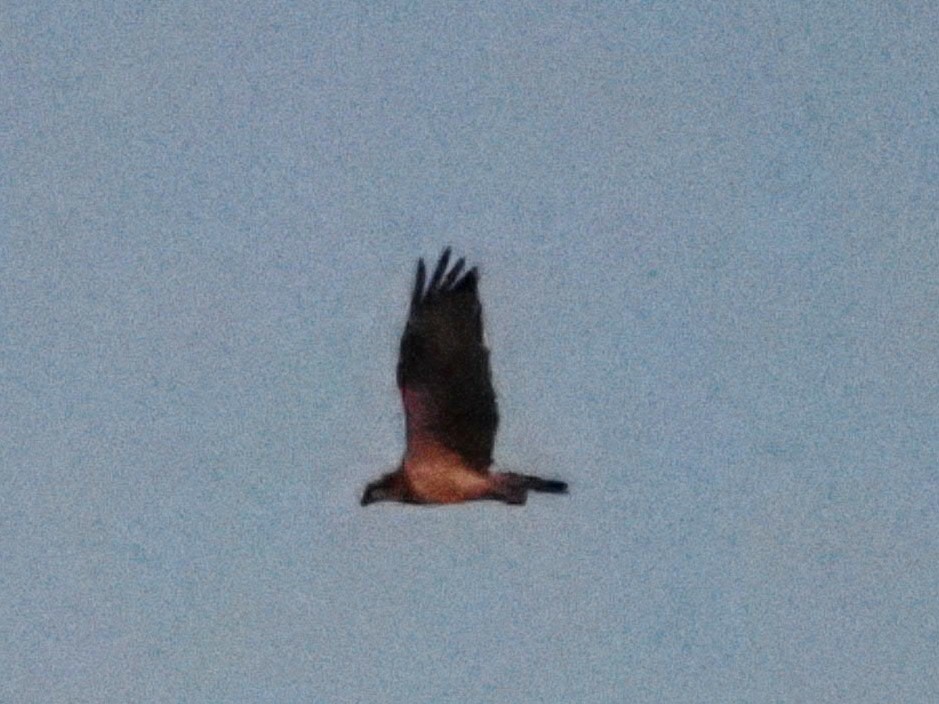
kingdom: Animalia
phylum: Chordata
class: Aves
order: Accipitriformes
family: Pandionidae
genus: Pandion
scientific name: Pandion haliaetus
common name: Osprey
